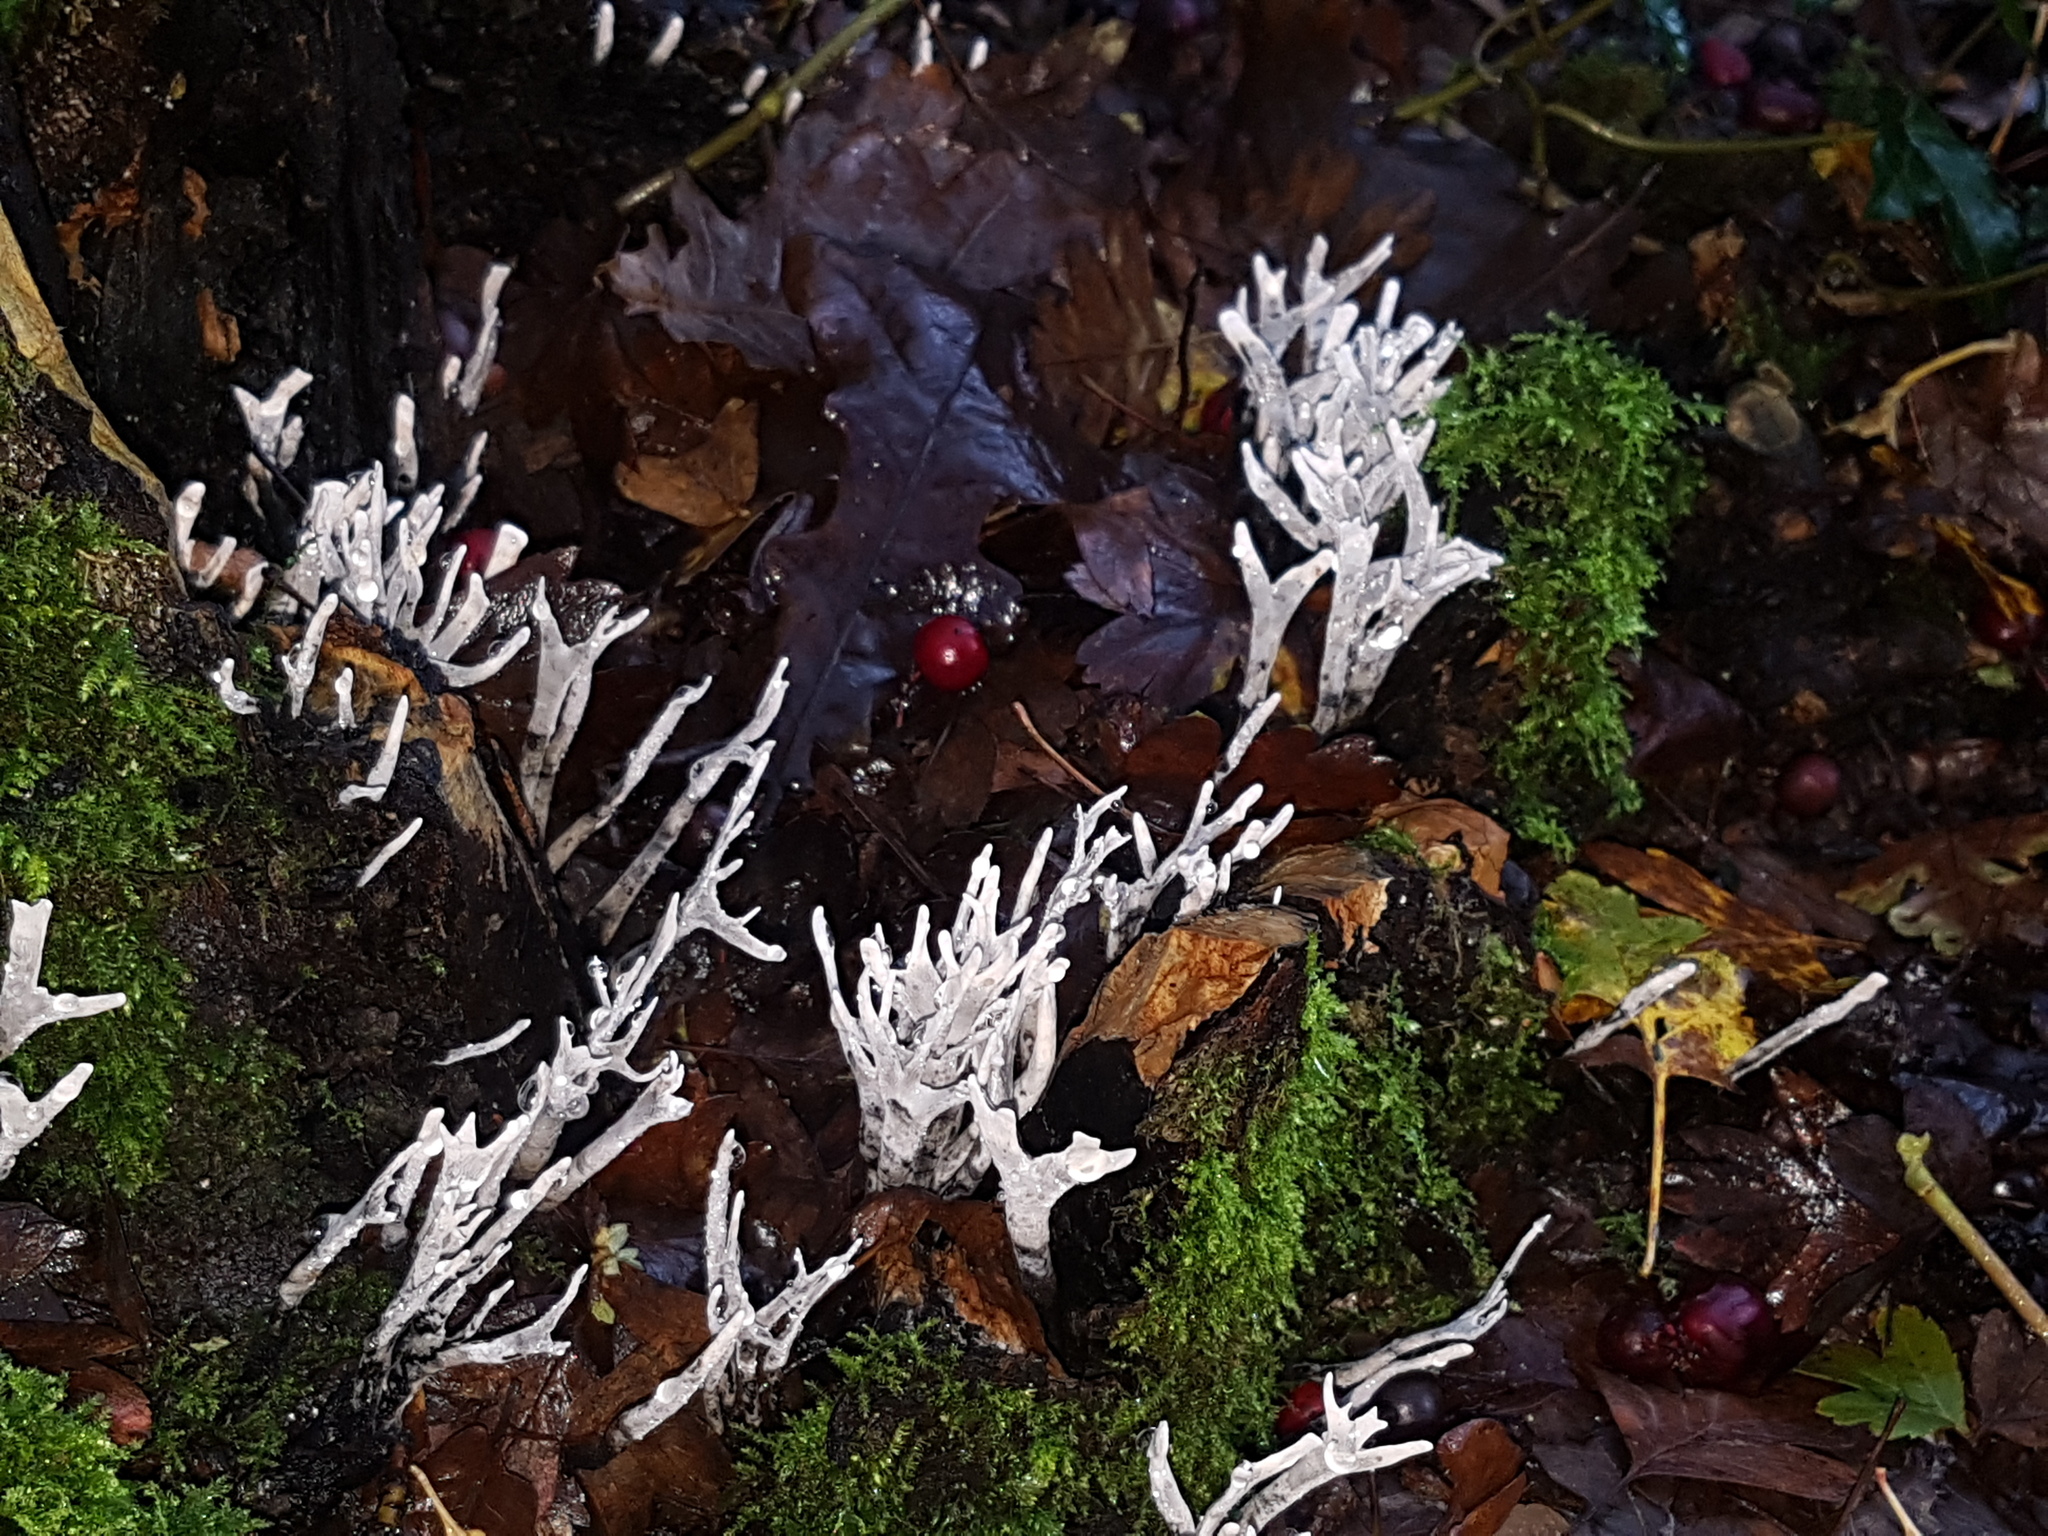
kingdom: Fungi
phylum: Ascomycota
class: Sordariomycetes
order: Xylariales
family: Xylariaceae
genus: Xylaria
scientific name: Xylaria hypoxylon
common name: Candle-snuff fungus
